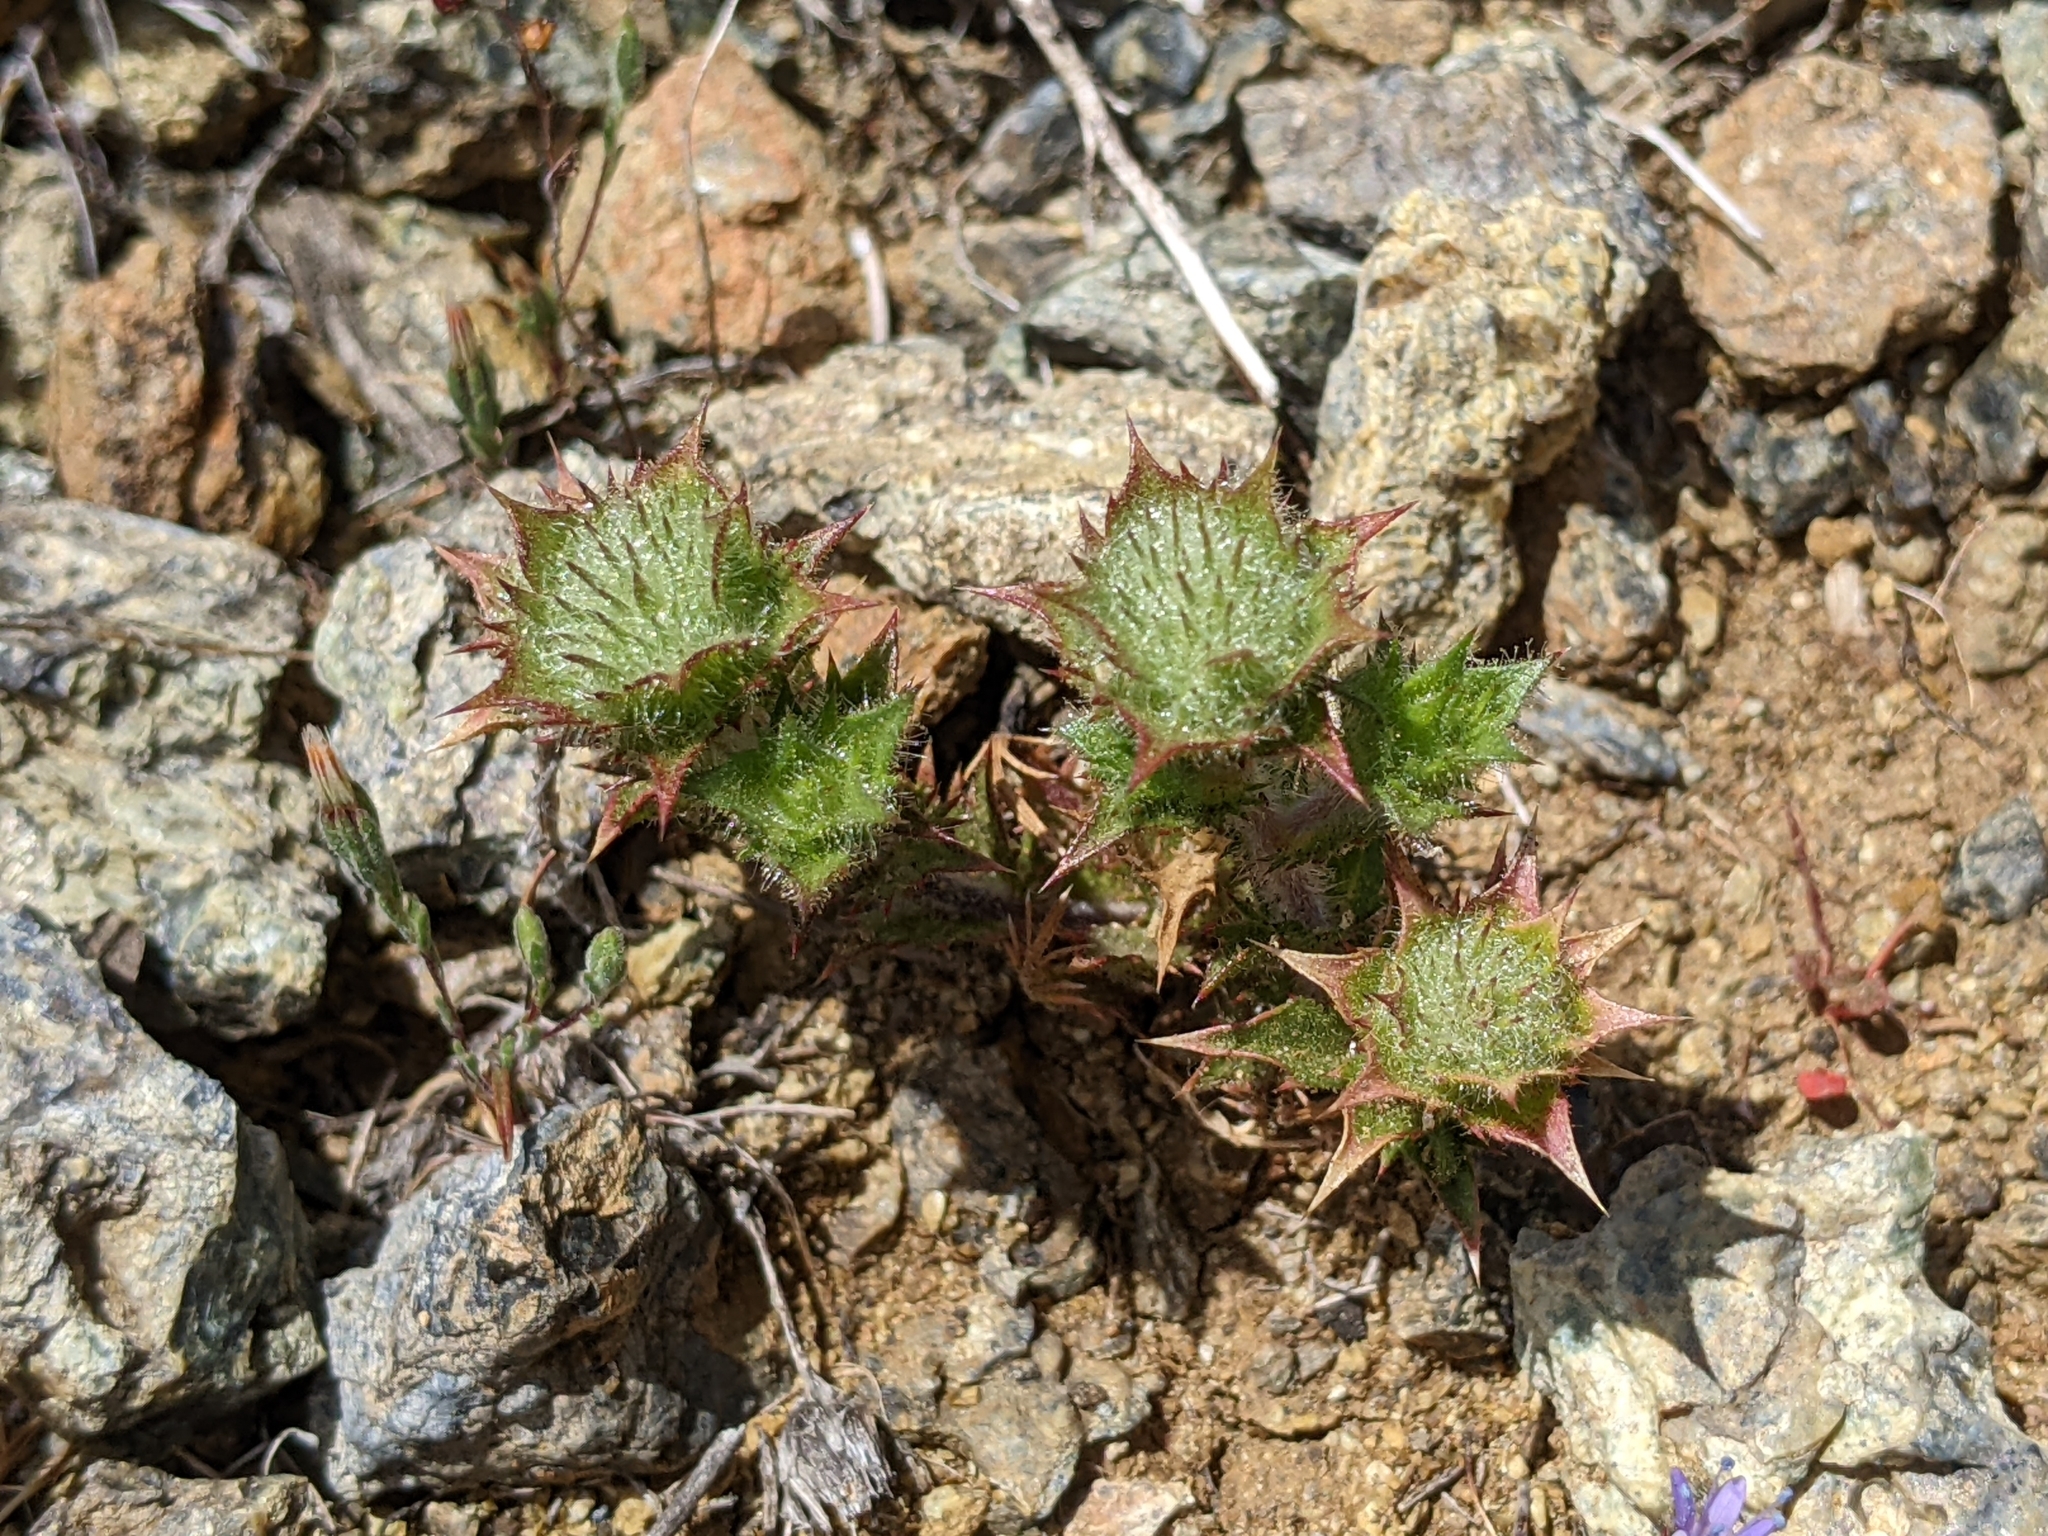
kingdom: Plantae
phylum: Tracheophyta
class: Magnoliopsida
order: Ericales
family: Polemoniaceae
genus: Navarretia
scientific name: Navarretia heterodoxa
